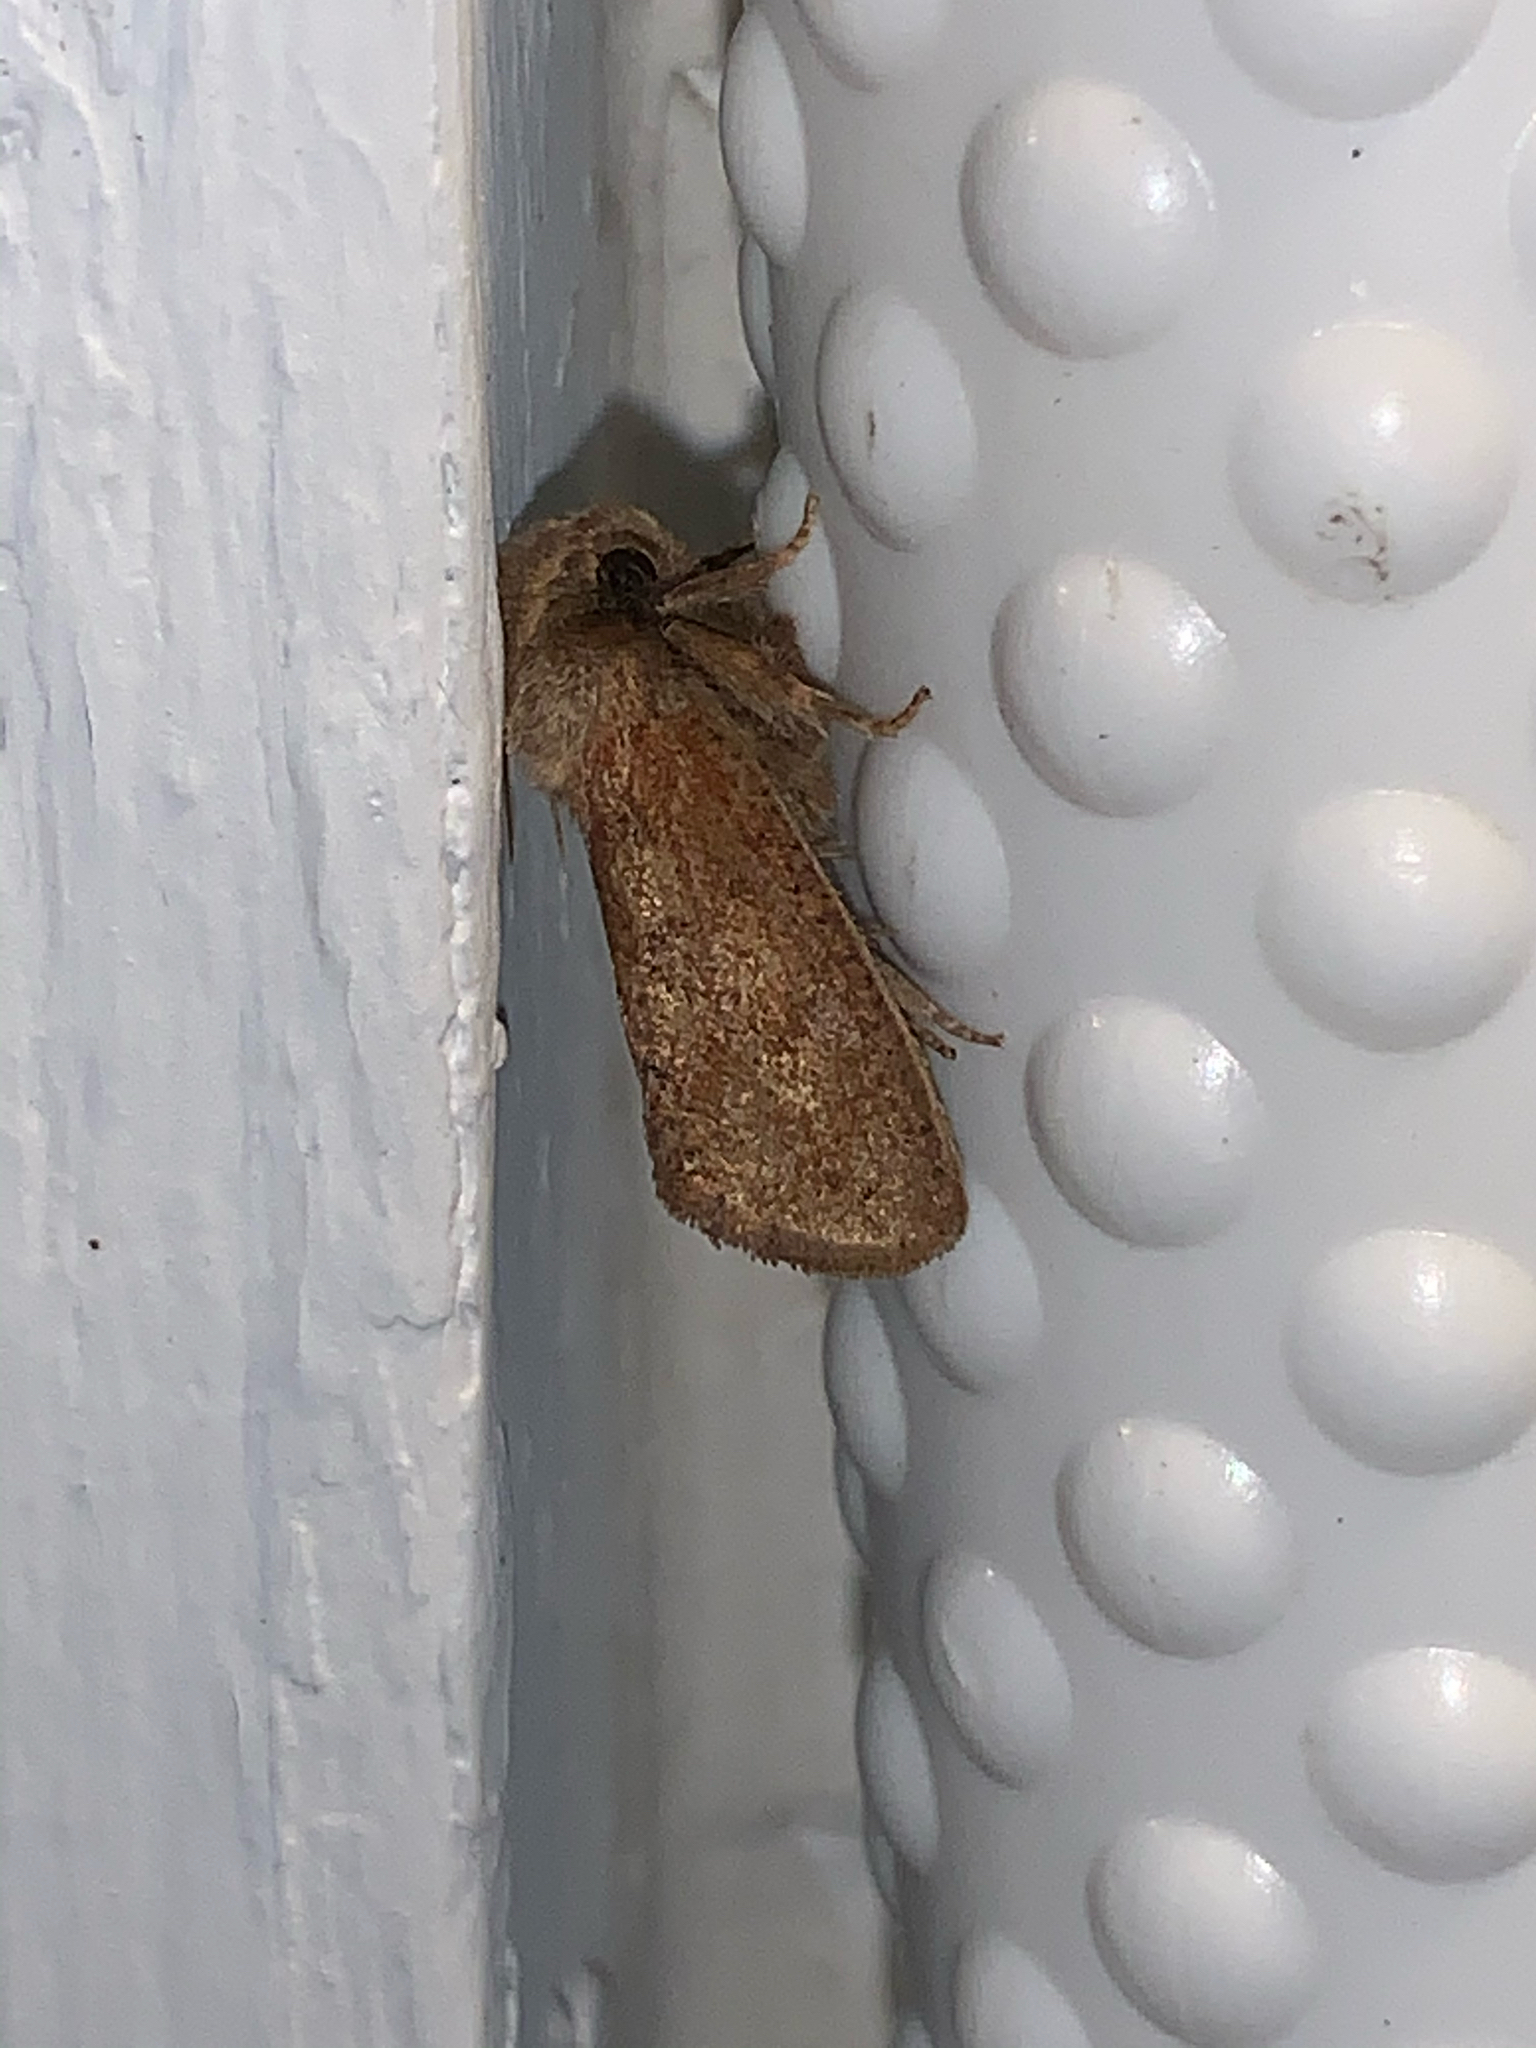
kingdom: Animalia
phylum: Arthropoda
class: Insecta
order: Lepidoptera
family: Tineidae
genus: Acrolophus
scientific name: Acrolophus plumifrontella
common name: Eastern grass tubeworm moth
